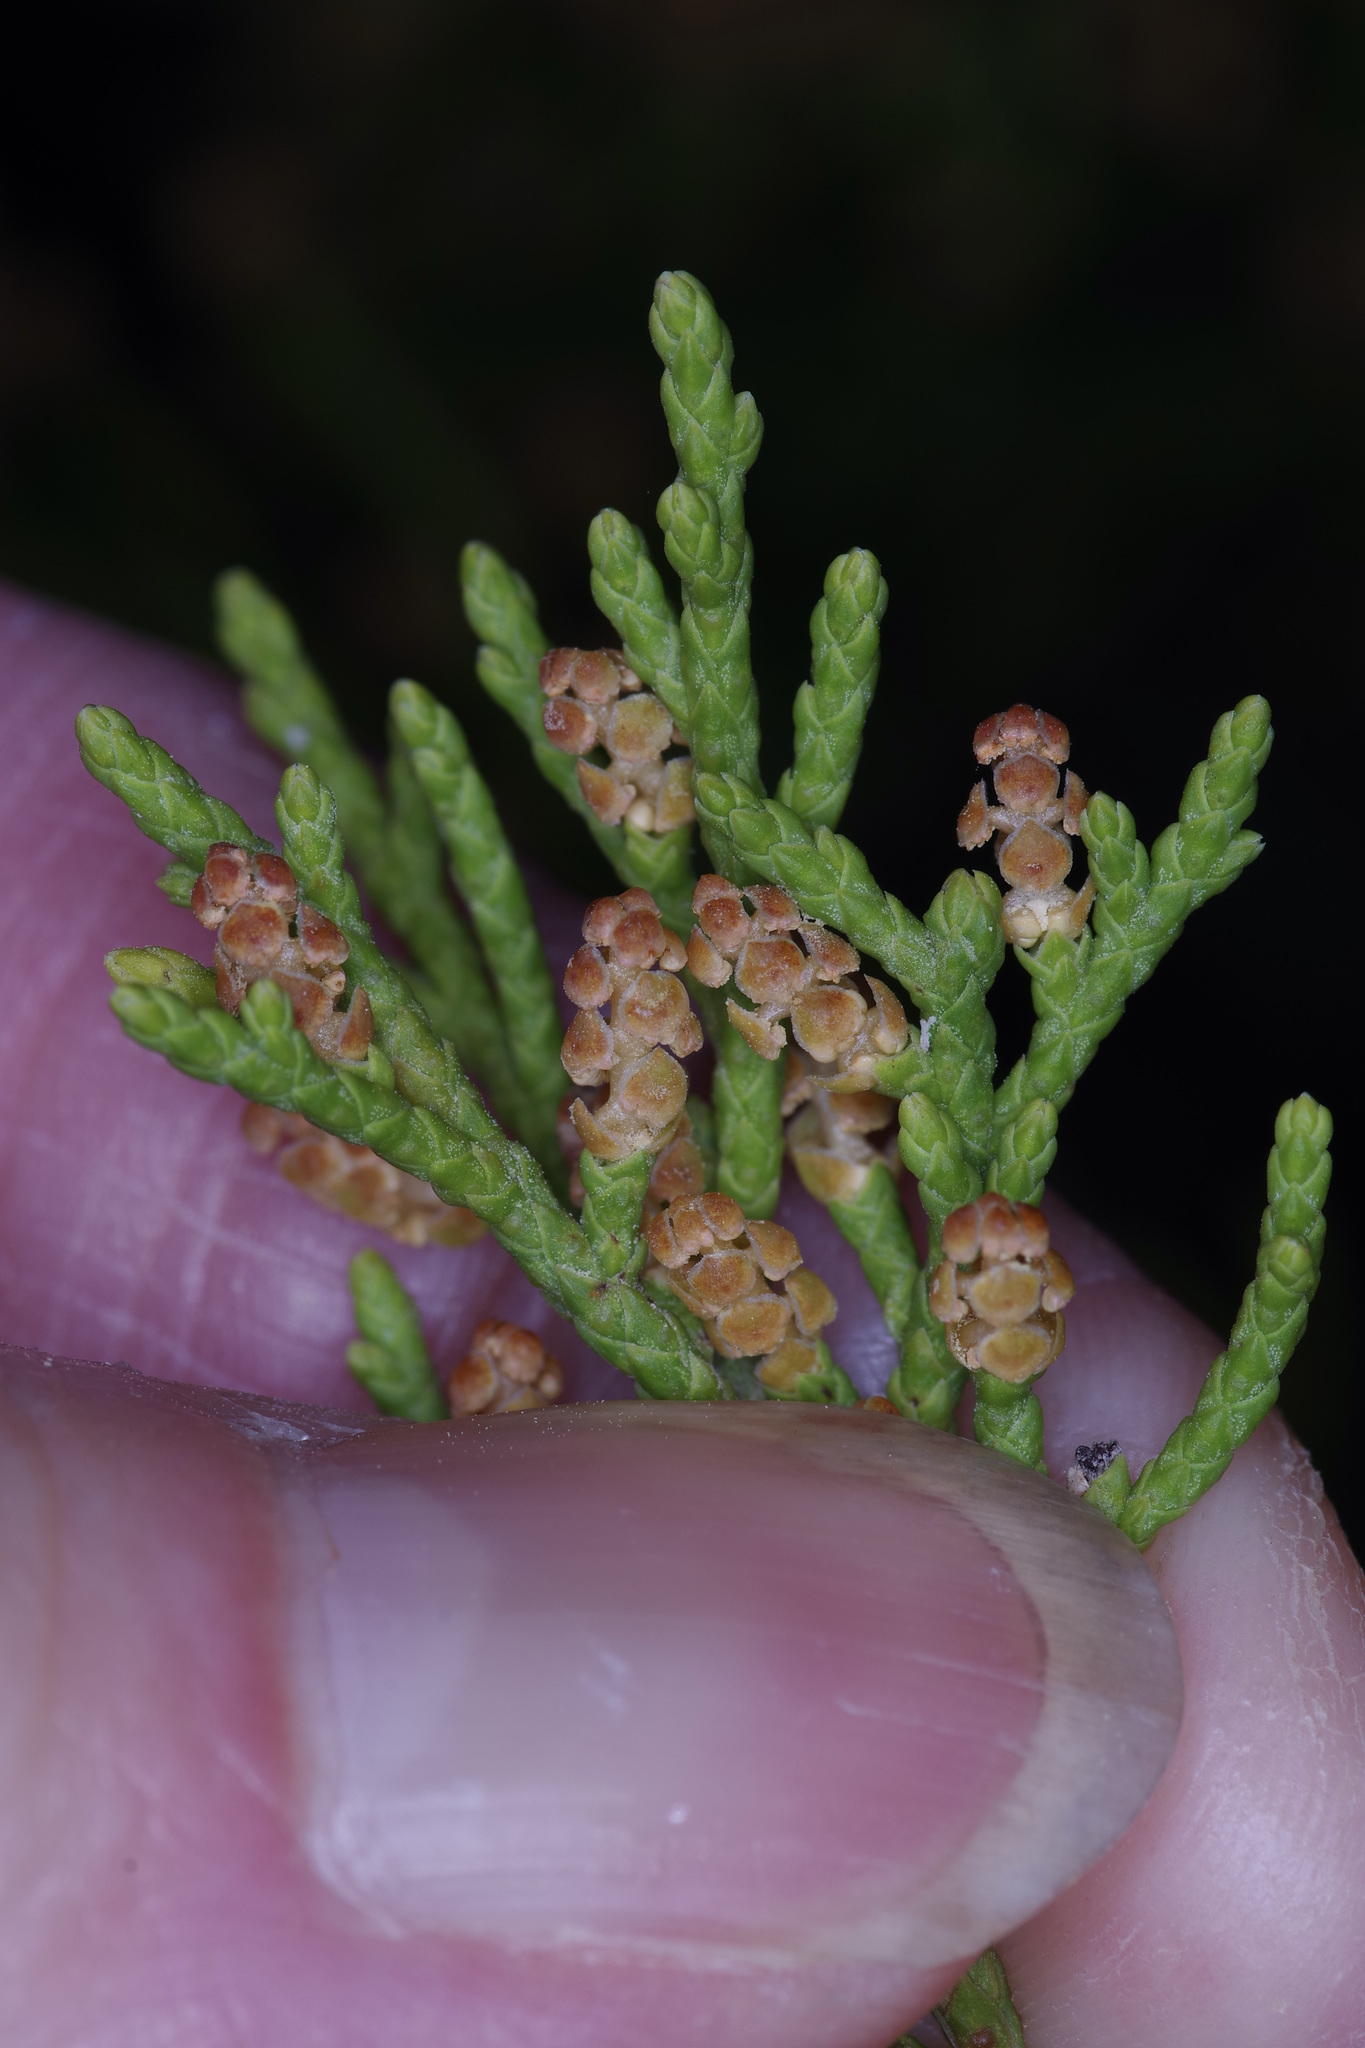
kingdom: Plantae
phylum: Tracheophyta
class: Pinopsida
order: Pinales
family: Cupressaceae
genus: Juniperus
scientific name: Juniperus ashei
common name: Mexican juniper
